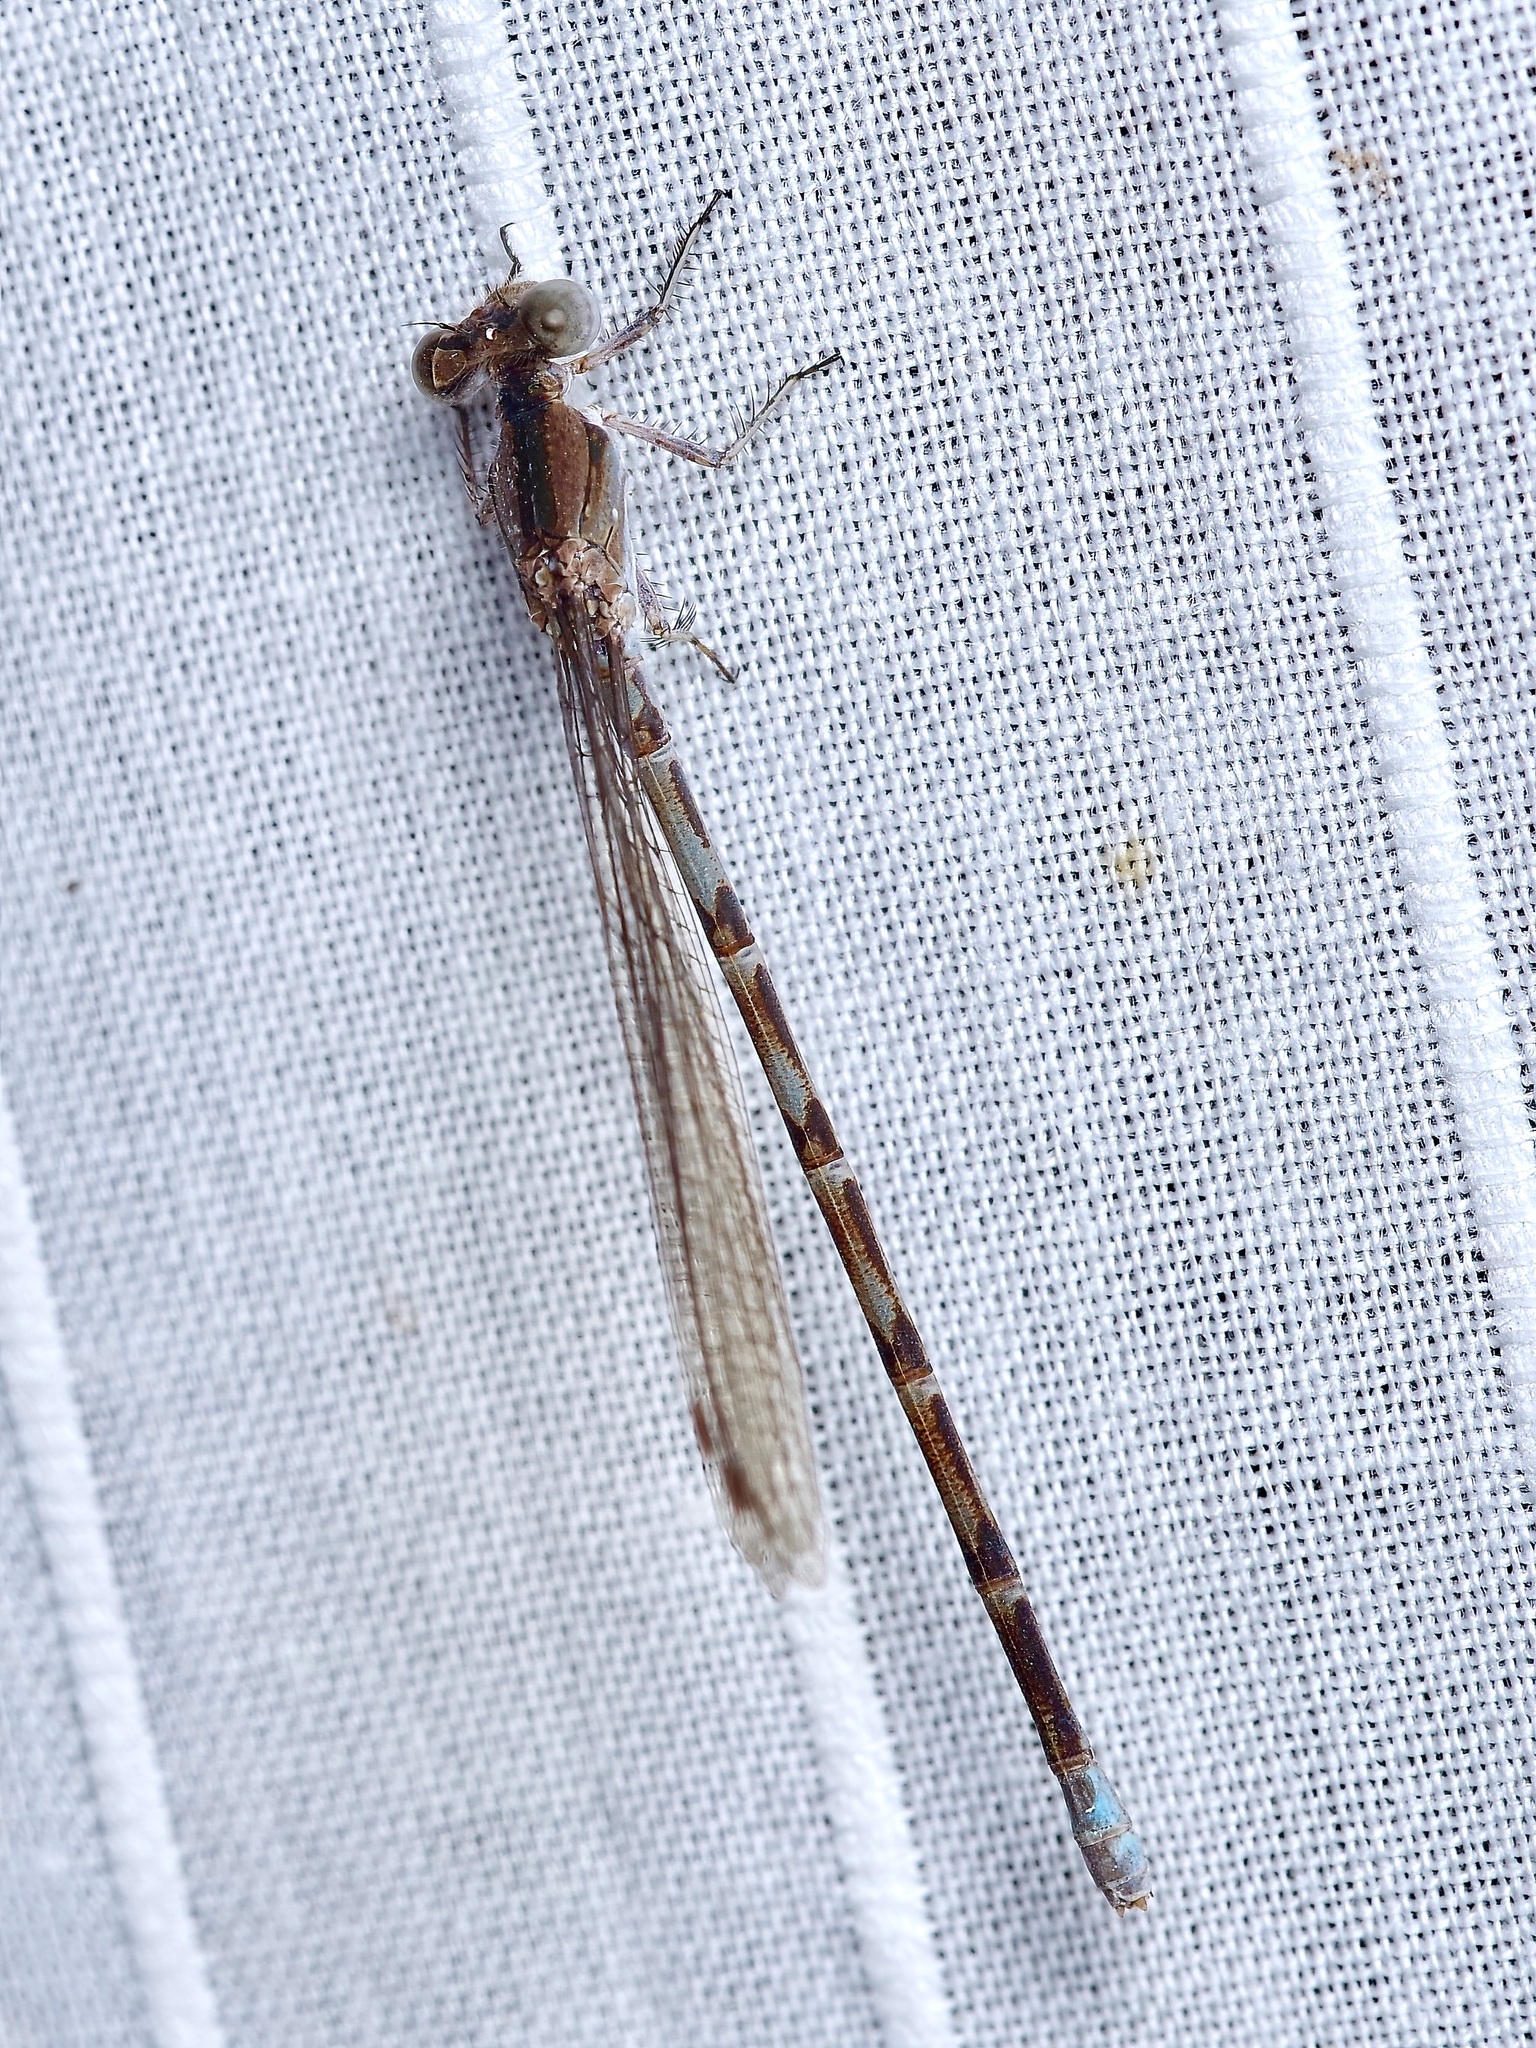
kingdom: Animalia
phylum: Arthropoda
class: Insecta
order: Odonata
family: Coenagrionidae
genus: Argia
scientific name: Argia immunda
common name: Kiowa dancer
